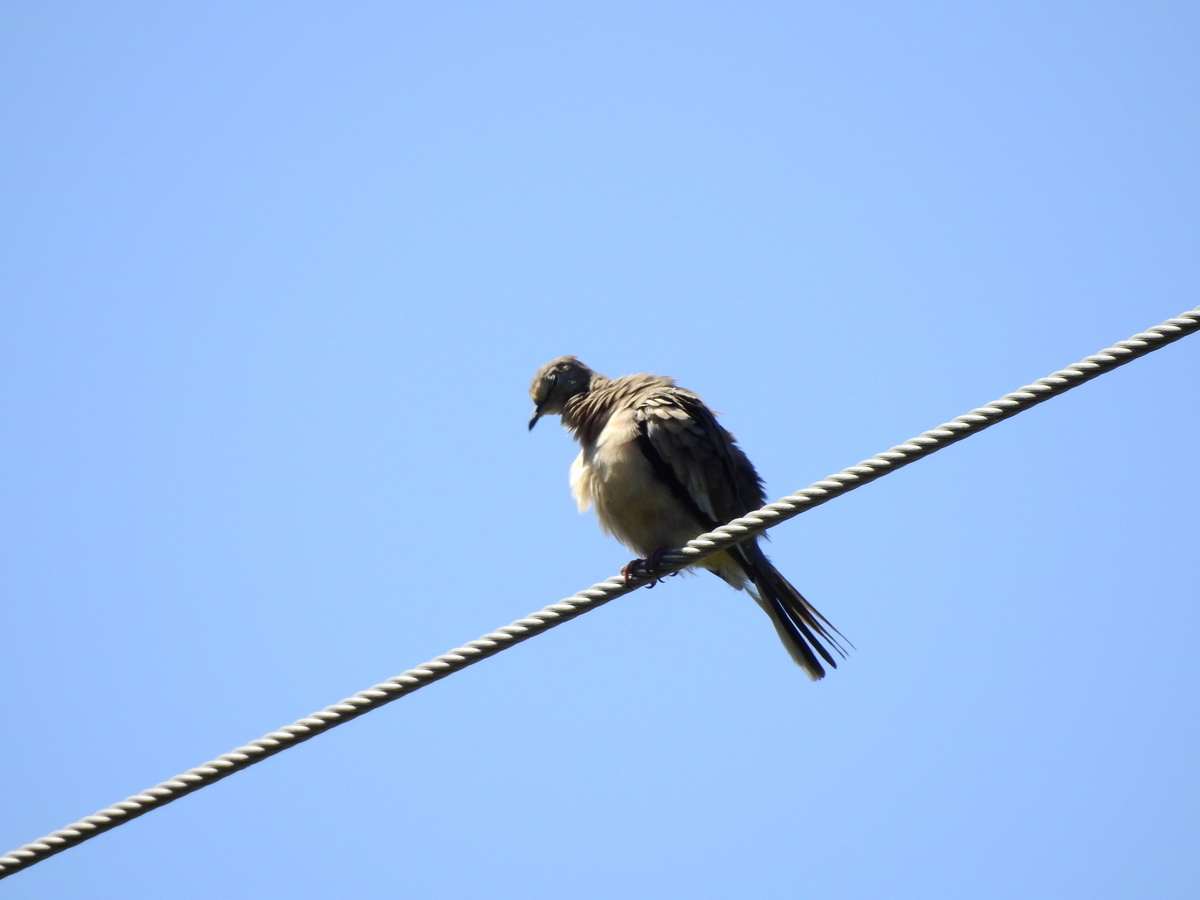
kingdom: Animalia
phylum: Chordata
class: Aves
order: Columbiformes
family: Columbidae
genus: Columbina
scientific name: Columbina picui
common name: Picui ground dove
